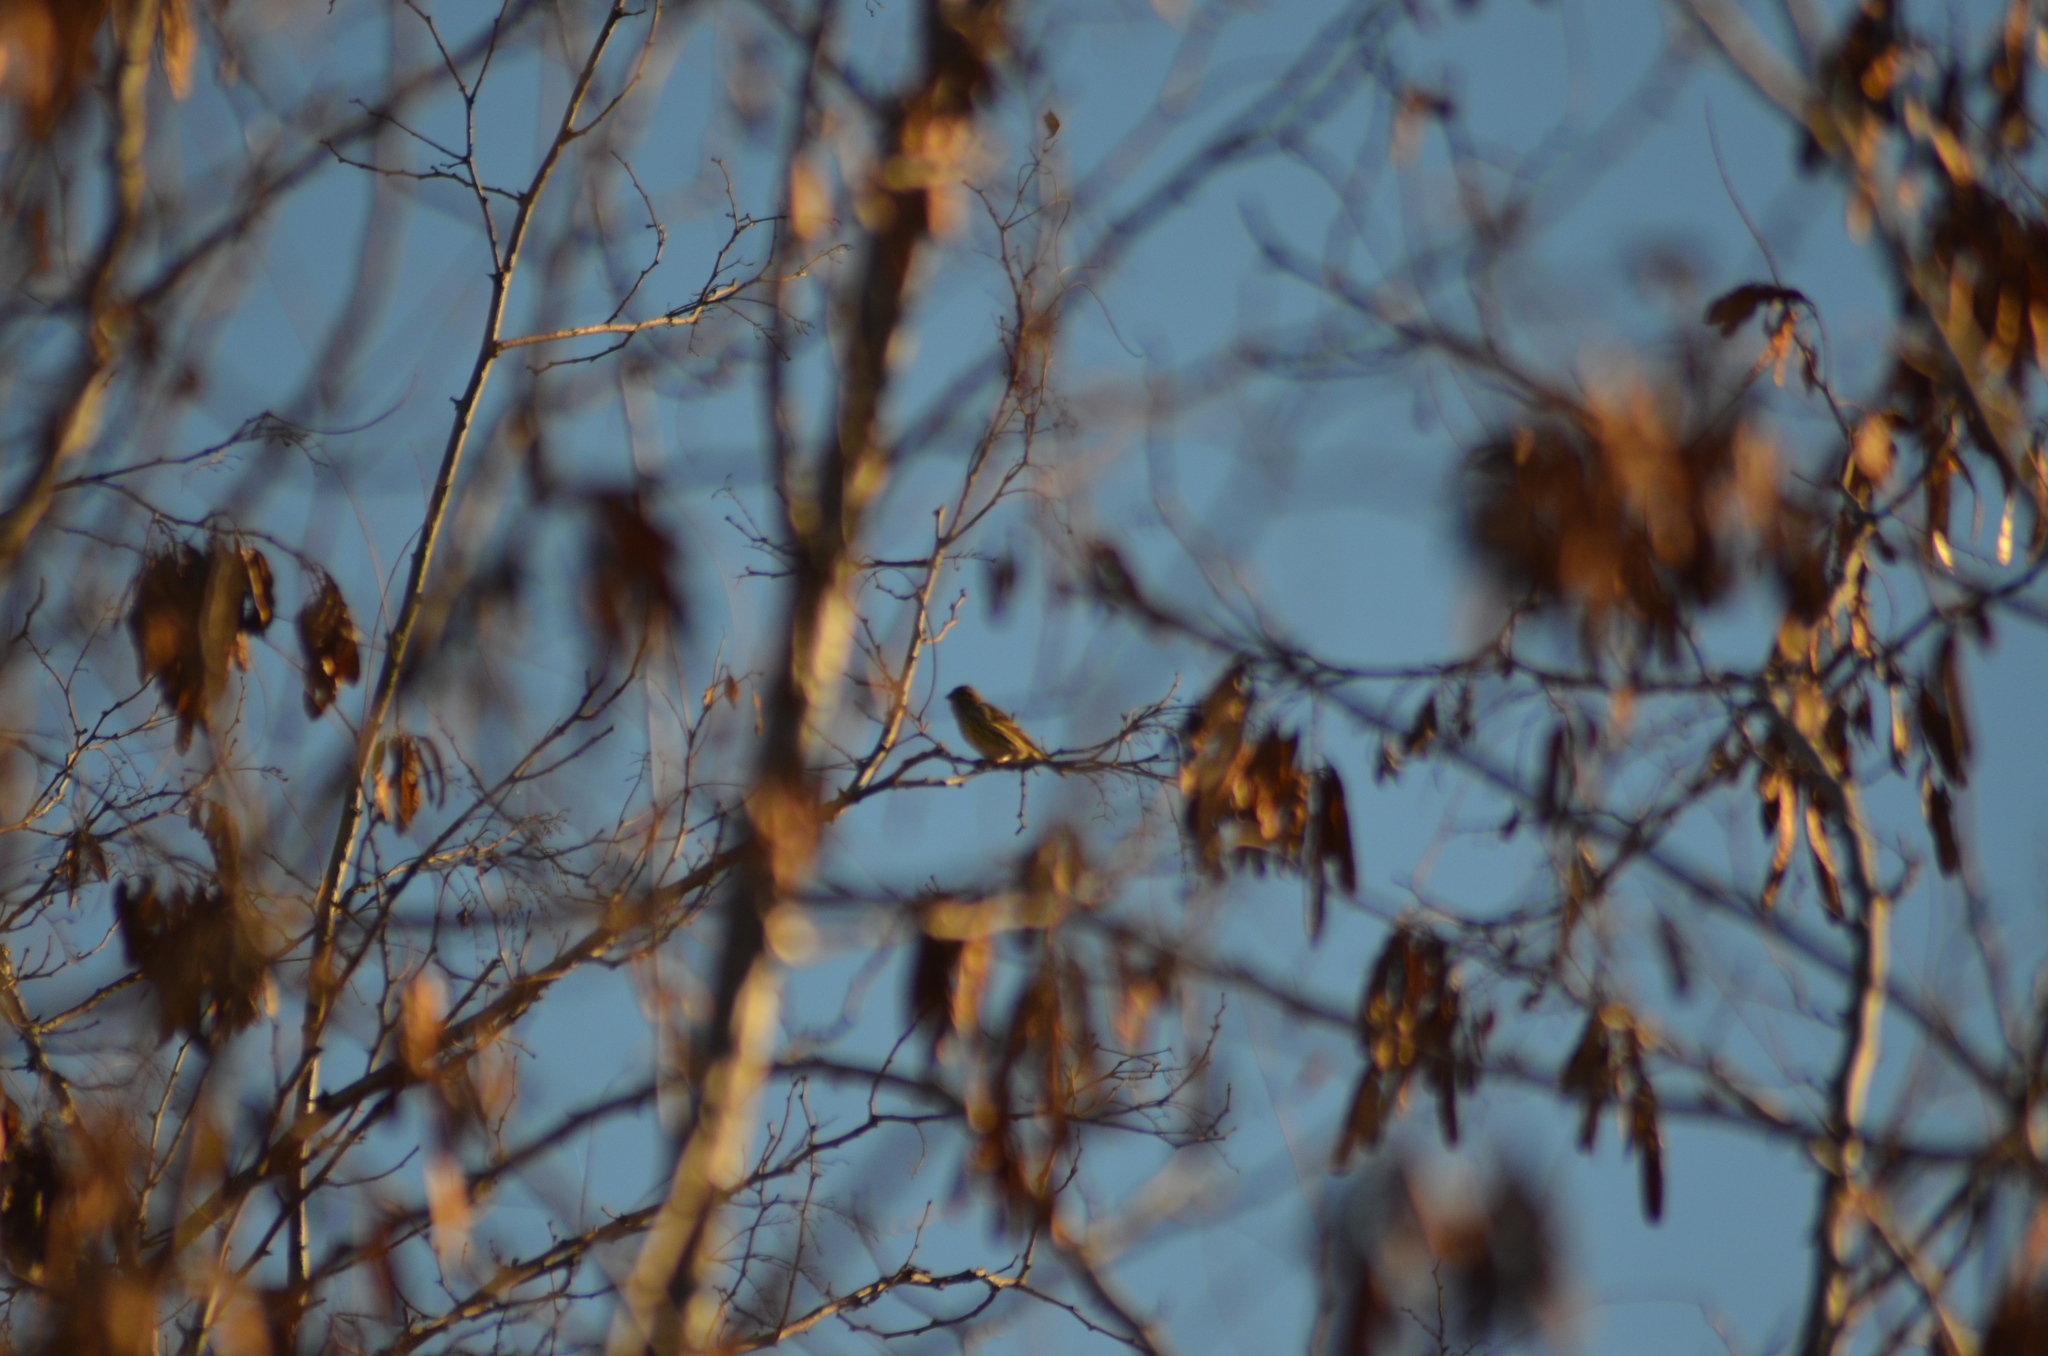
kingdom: Animalia
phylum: Chordata
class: Aves
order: Passeriformes
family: Fringillidae
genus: Serinus
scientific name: Serinus serinus
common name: European serin
